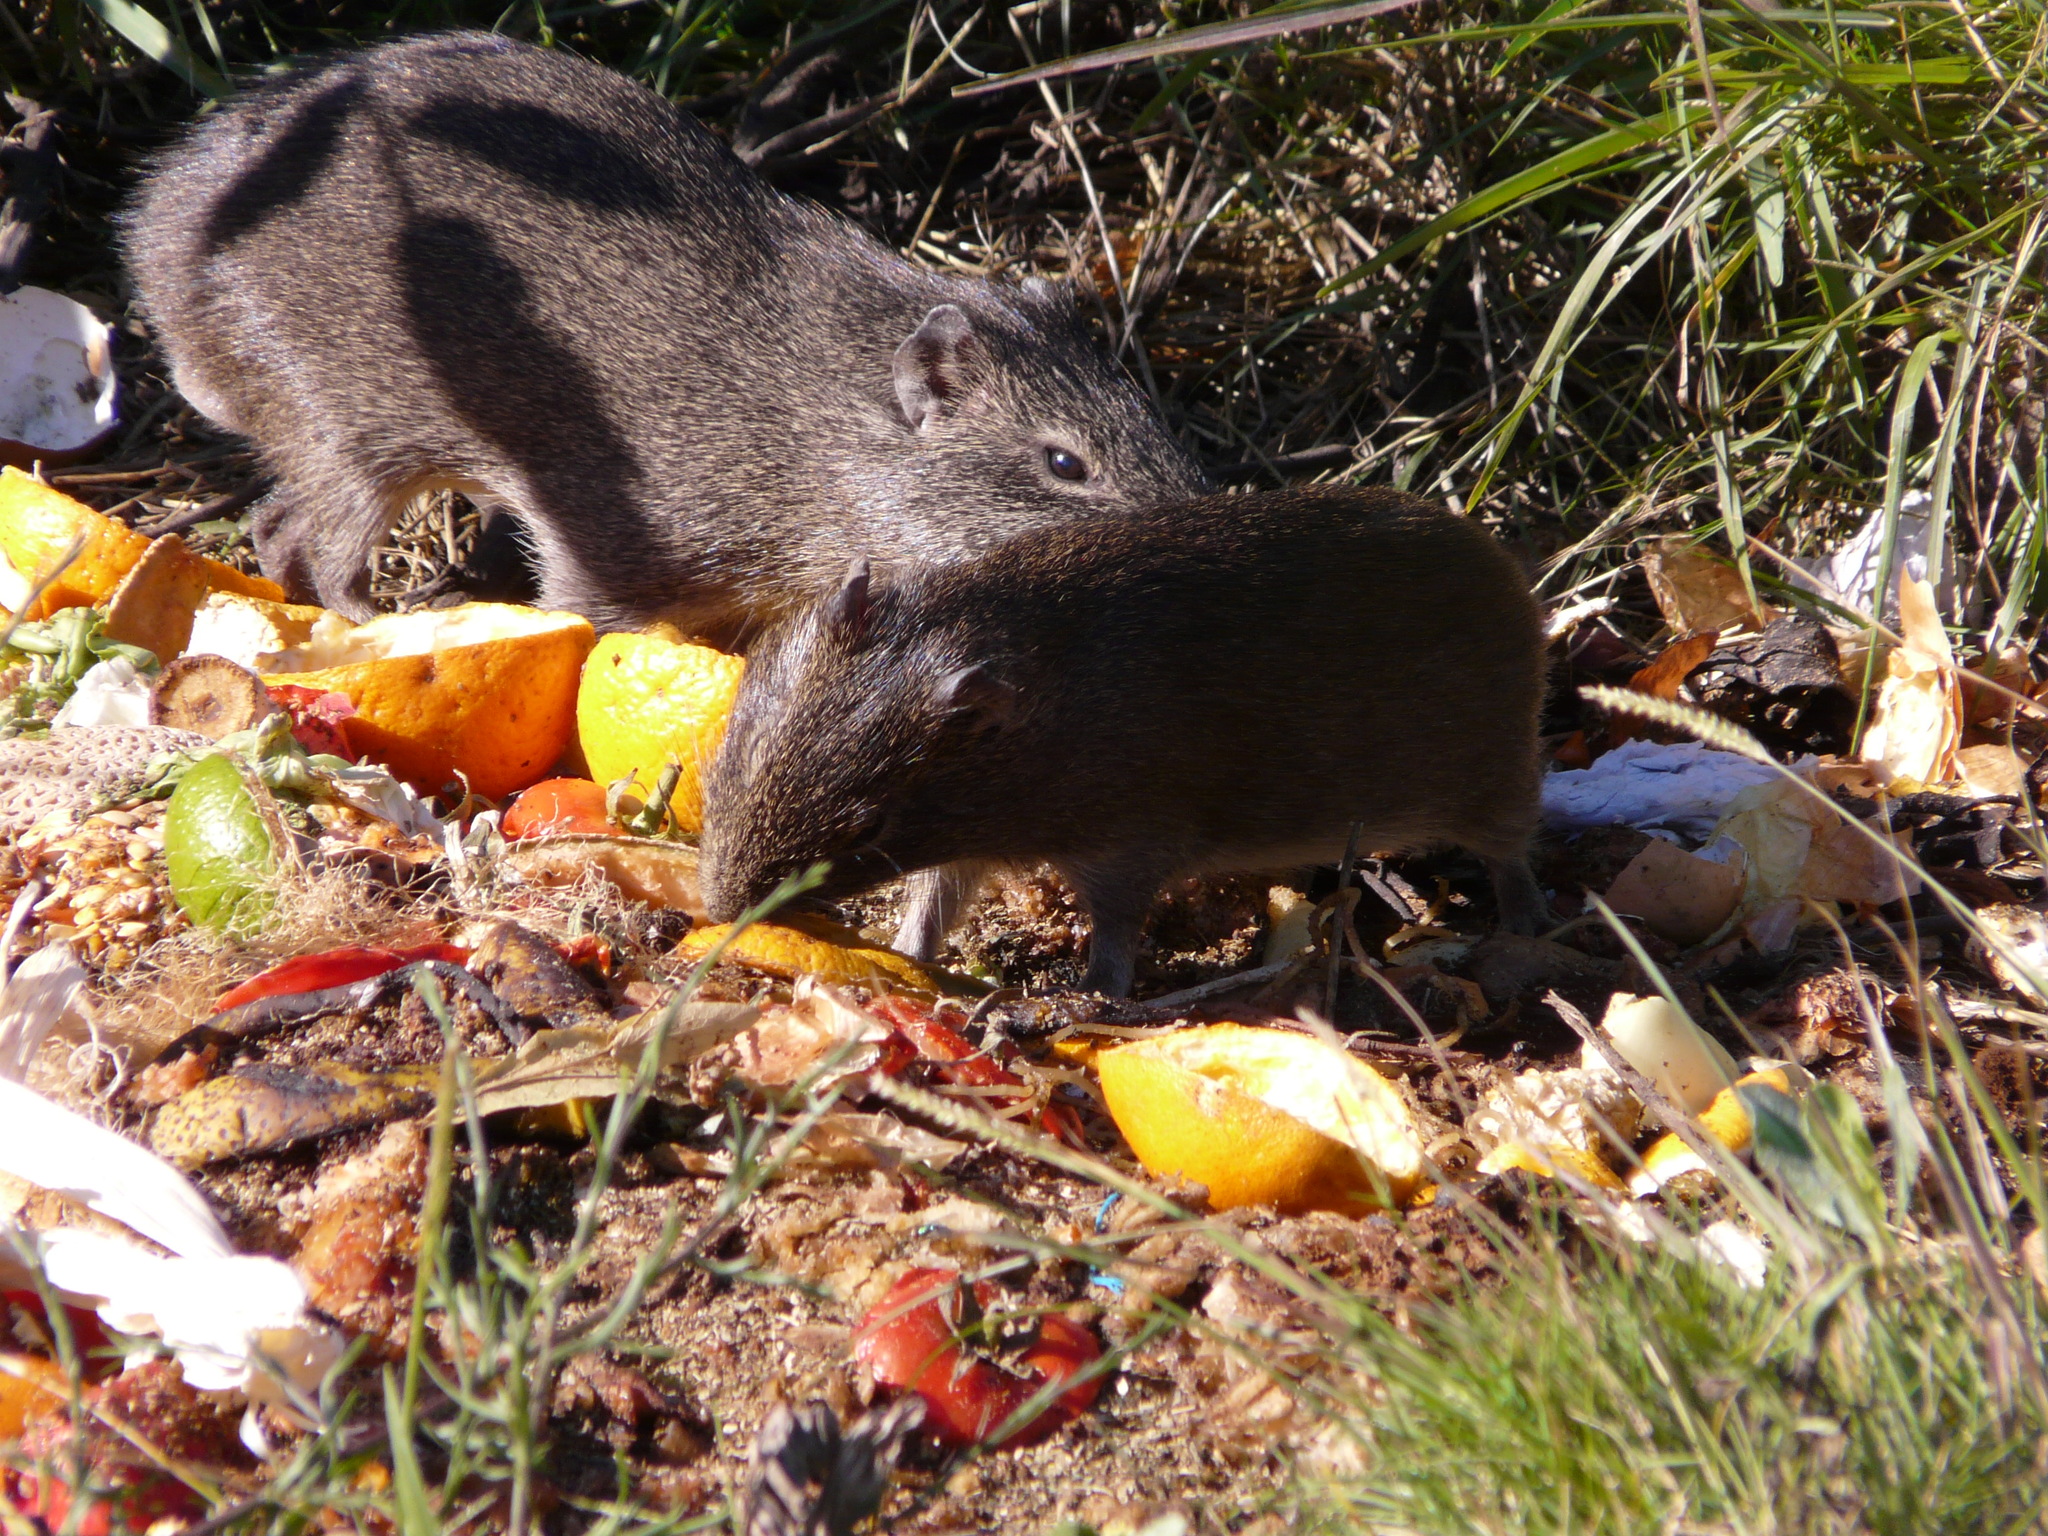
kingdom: Animalia
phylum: Chordata
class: Mammalia
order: Rodentia
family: Caviidae
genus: Cavia
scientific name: Cavia aperea
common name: Brazilian guinea pig
